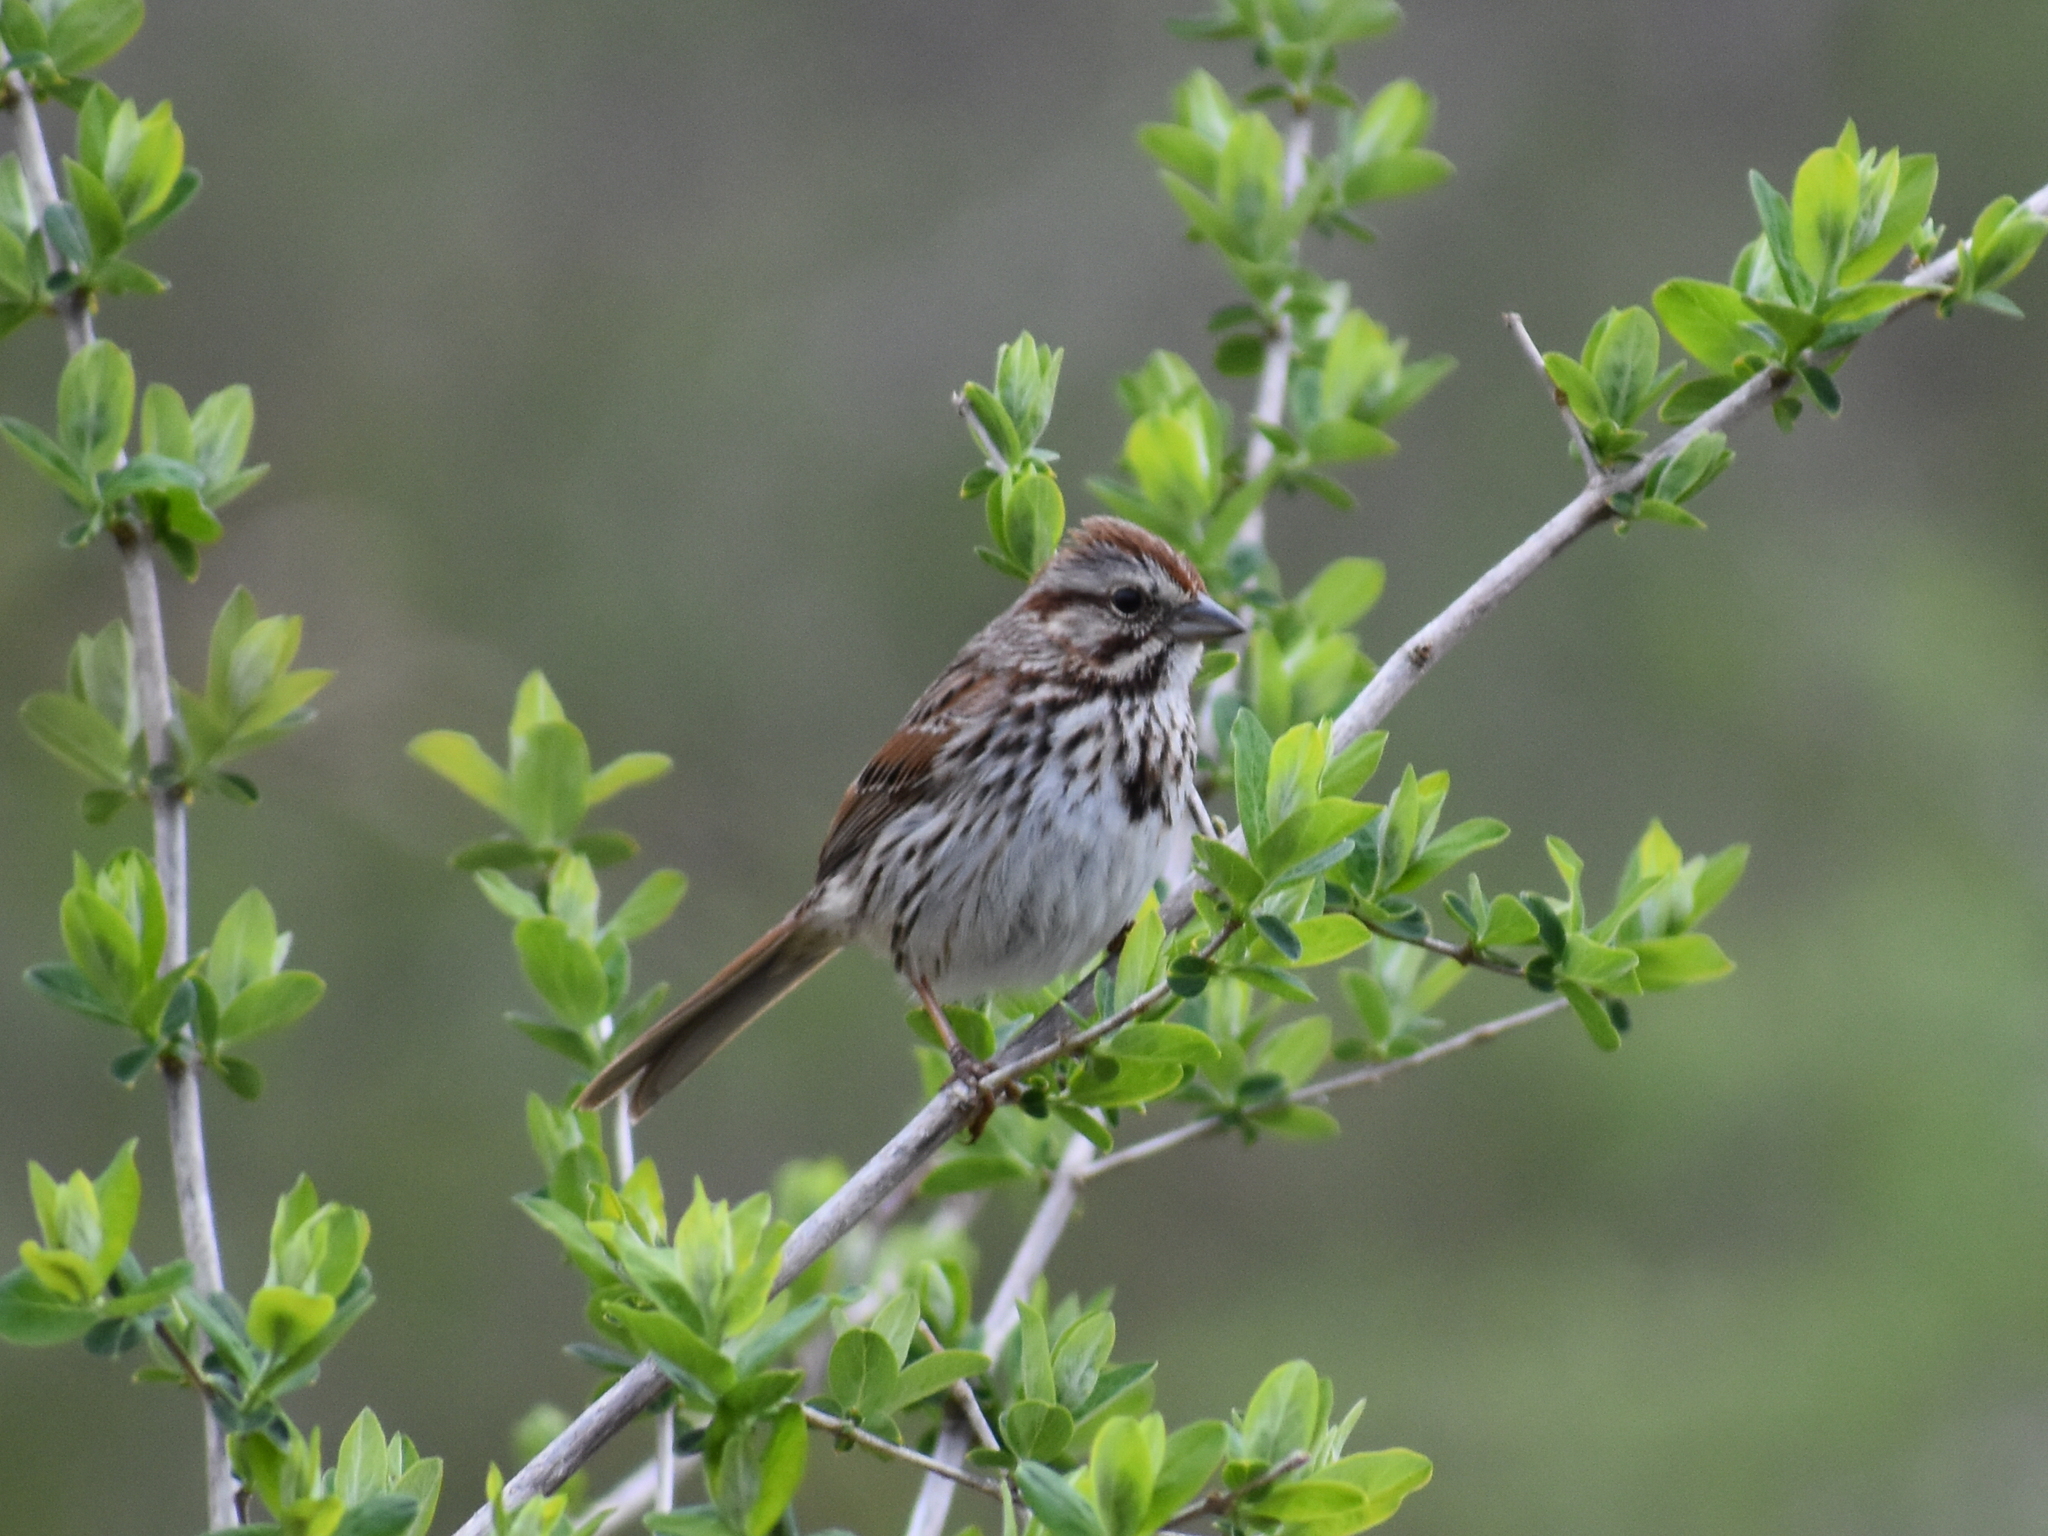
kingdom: Animalia
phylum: Chordata
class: Aves
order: Passeriformes
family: Passerellidae
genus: Melospiza
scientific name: Melospiza melodia
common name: Song sparrow
